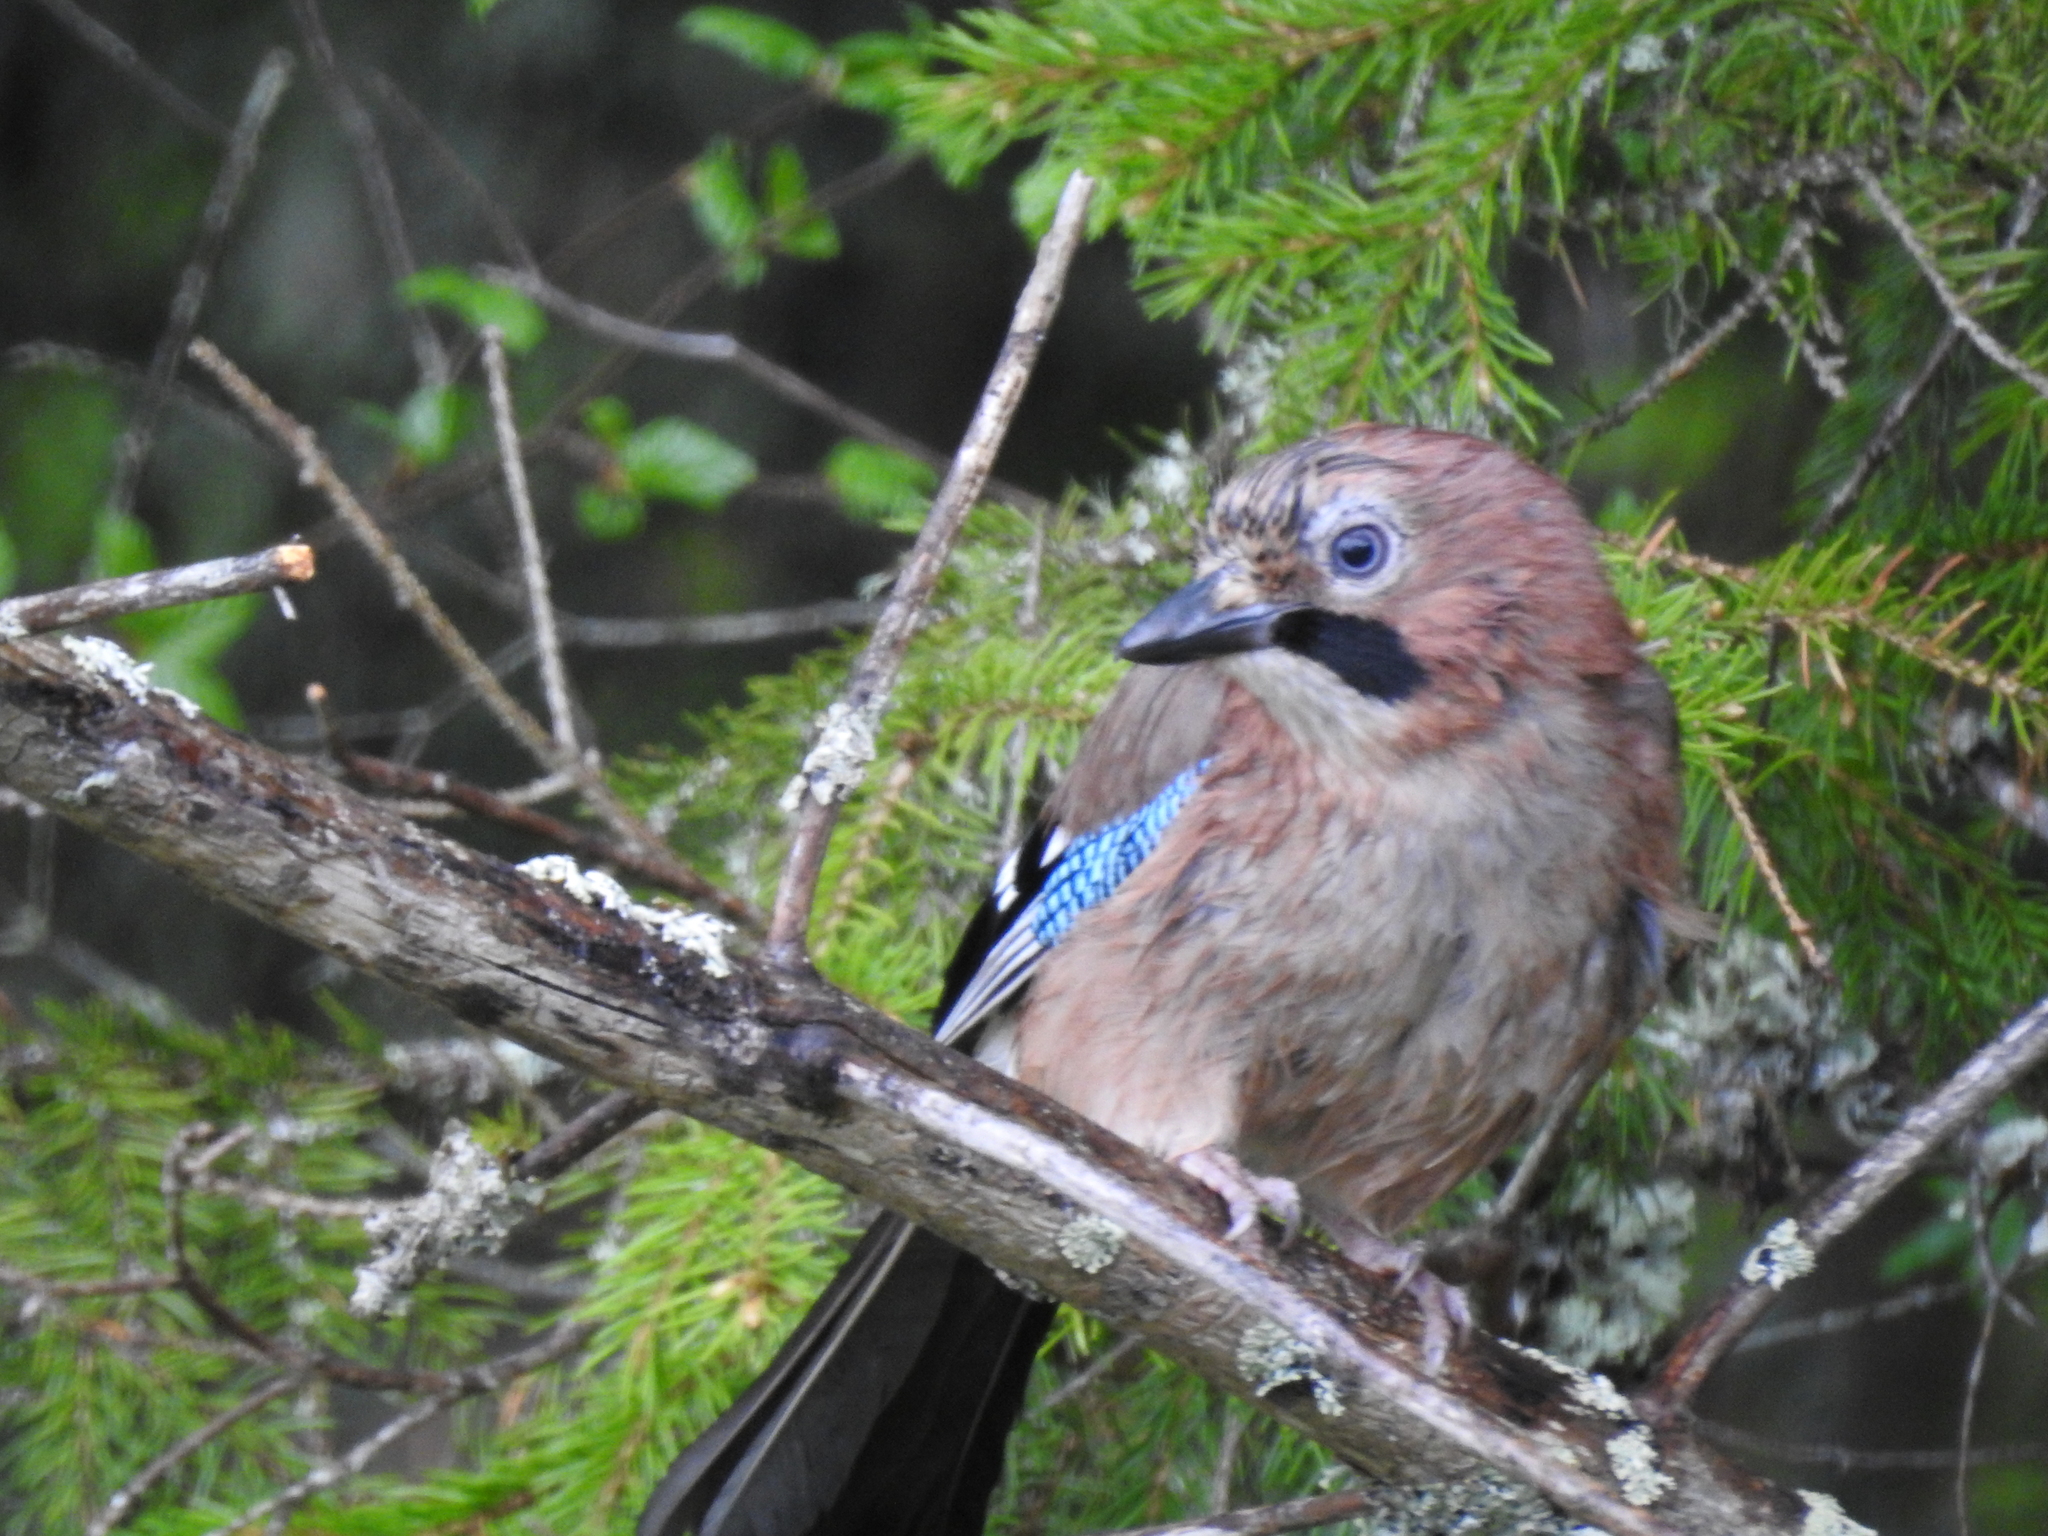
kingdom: Animalia
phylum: Chordata
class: Aves
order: Passeriformes
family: Corvidae
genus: Garrulus
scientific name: Garrulus glandarius
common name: Eurasian jay
